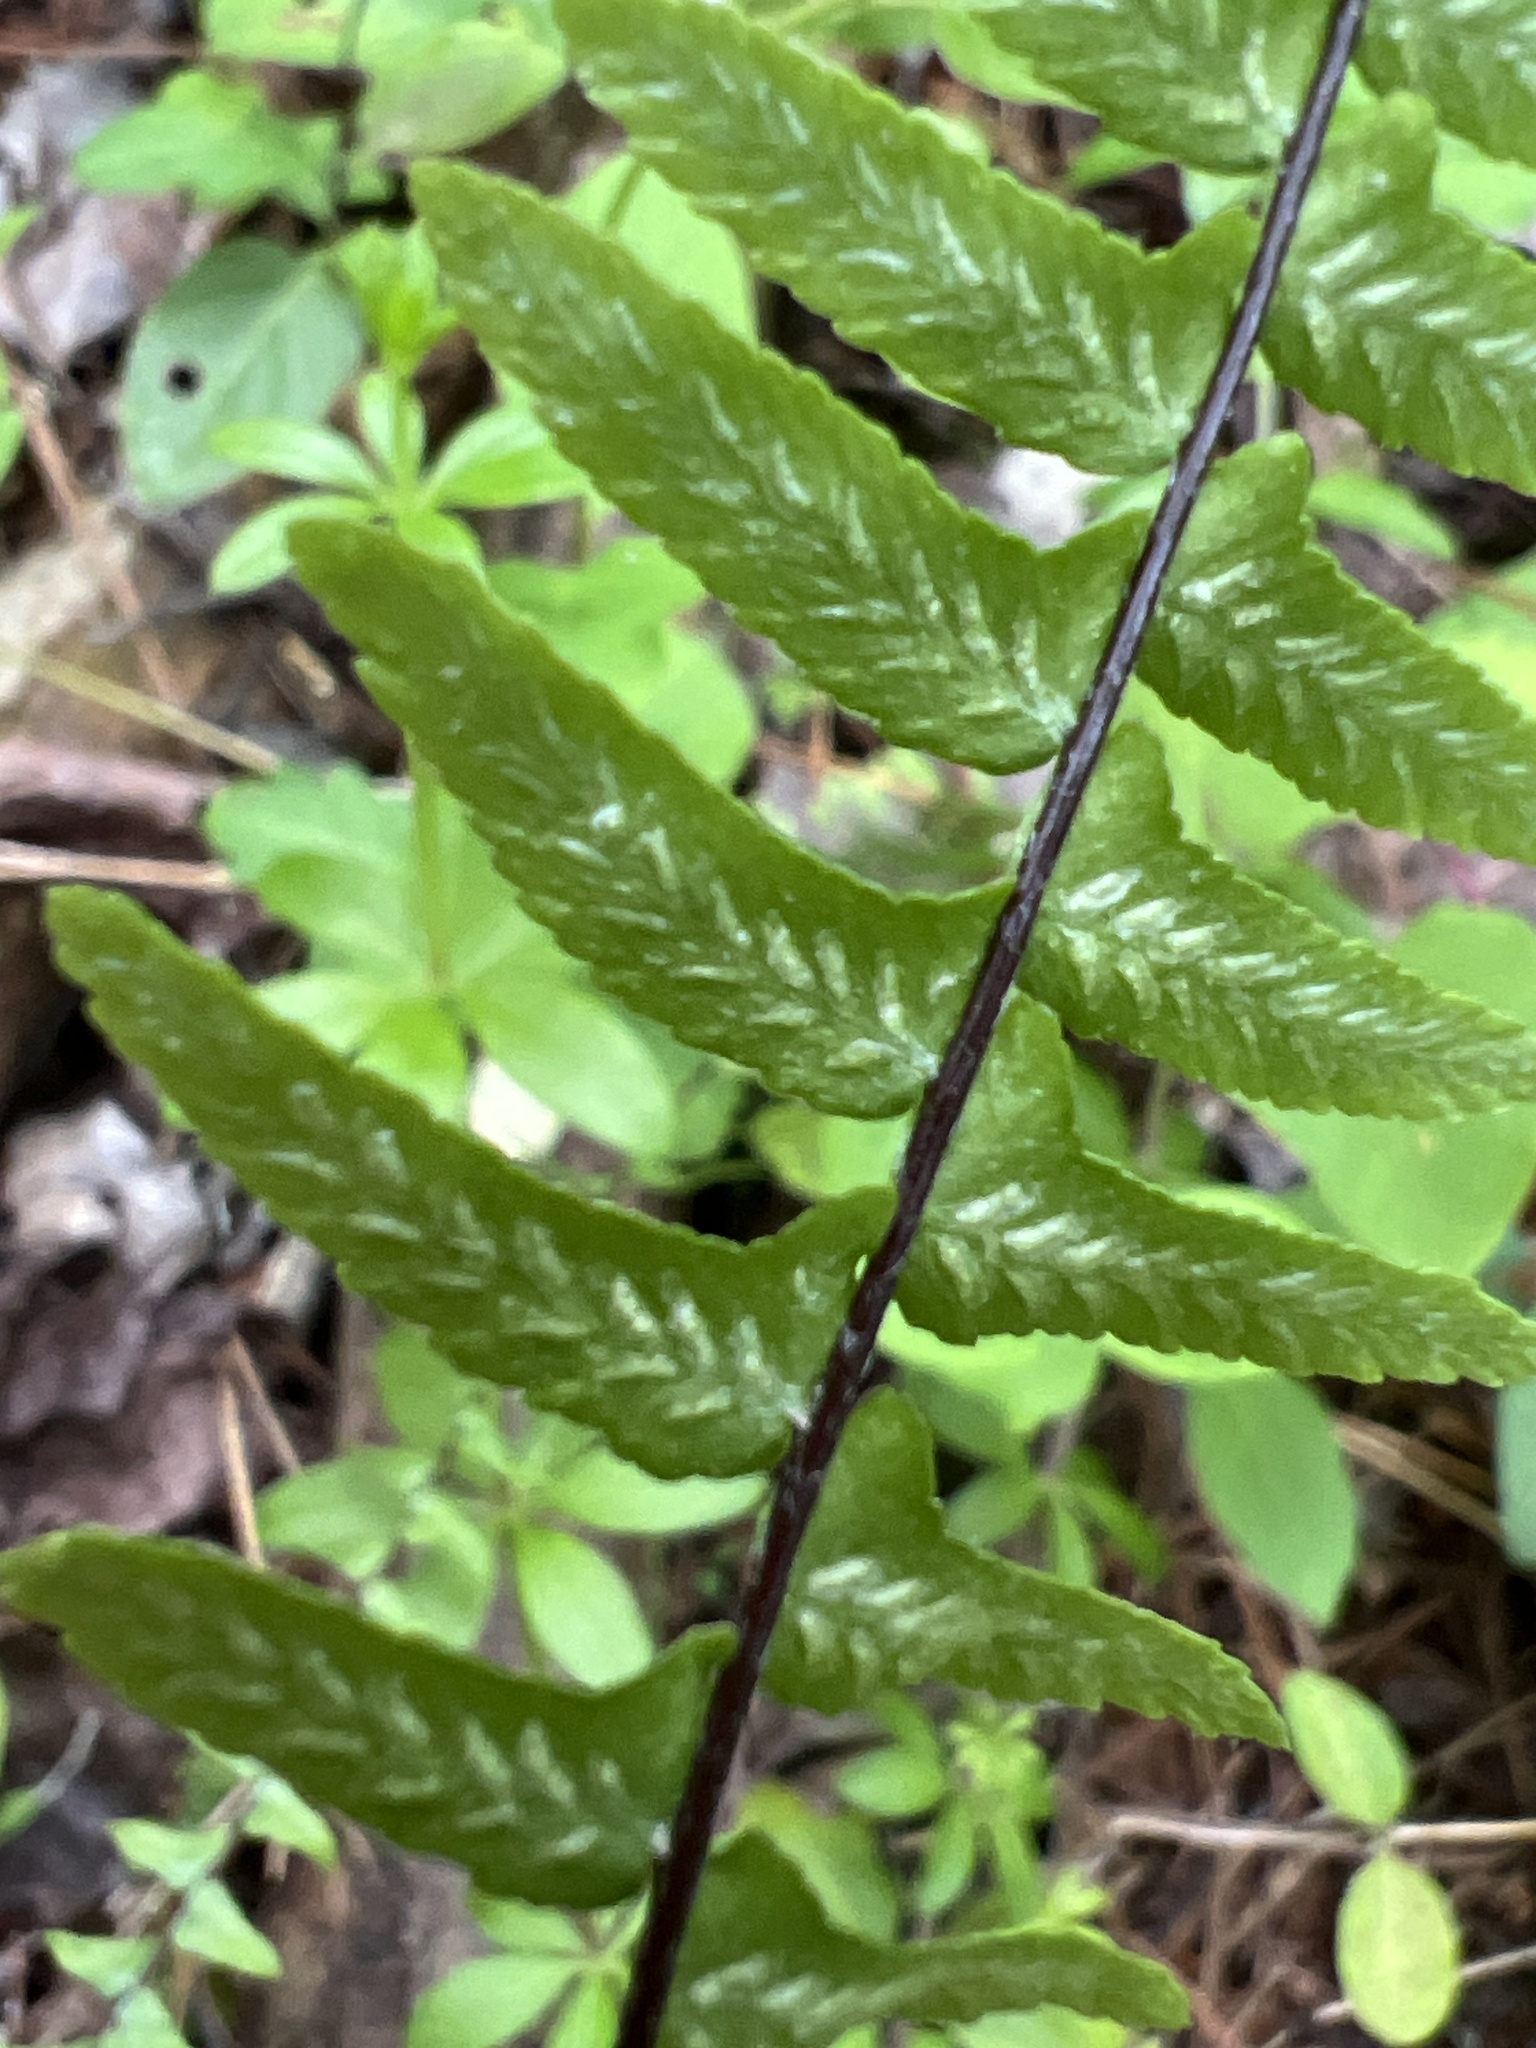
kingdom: Plantae
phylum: Tracheophyta
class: Polypodiopsida
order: Polypodiales
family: Aspleniaceae
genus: Asplenium
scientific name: Asplenium platyneuron
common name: Ebony spleenwort
